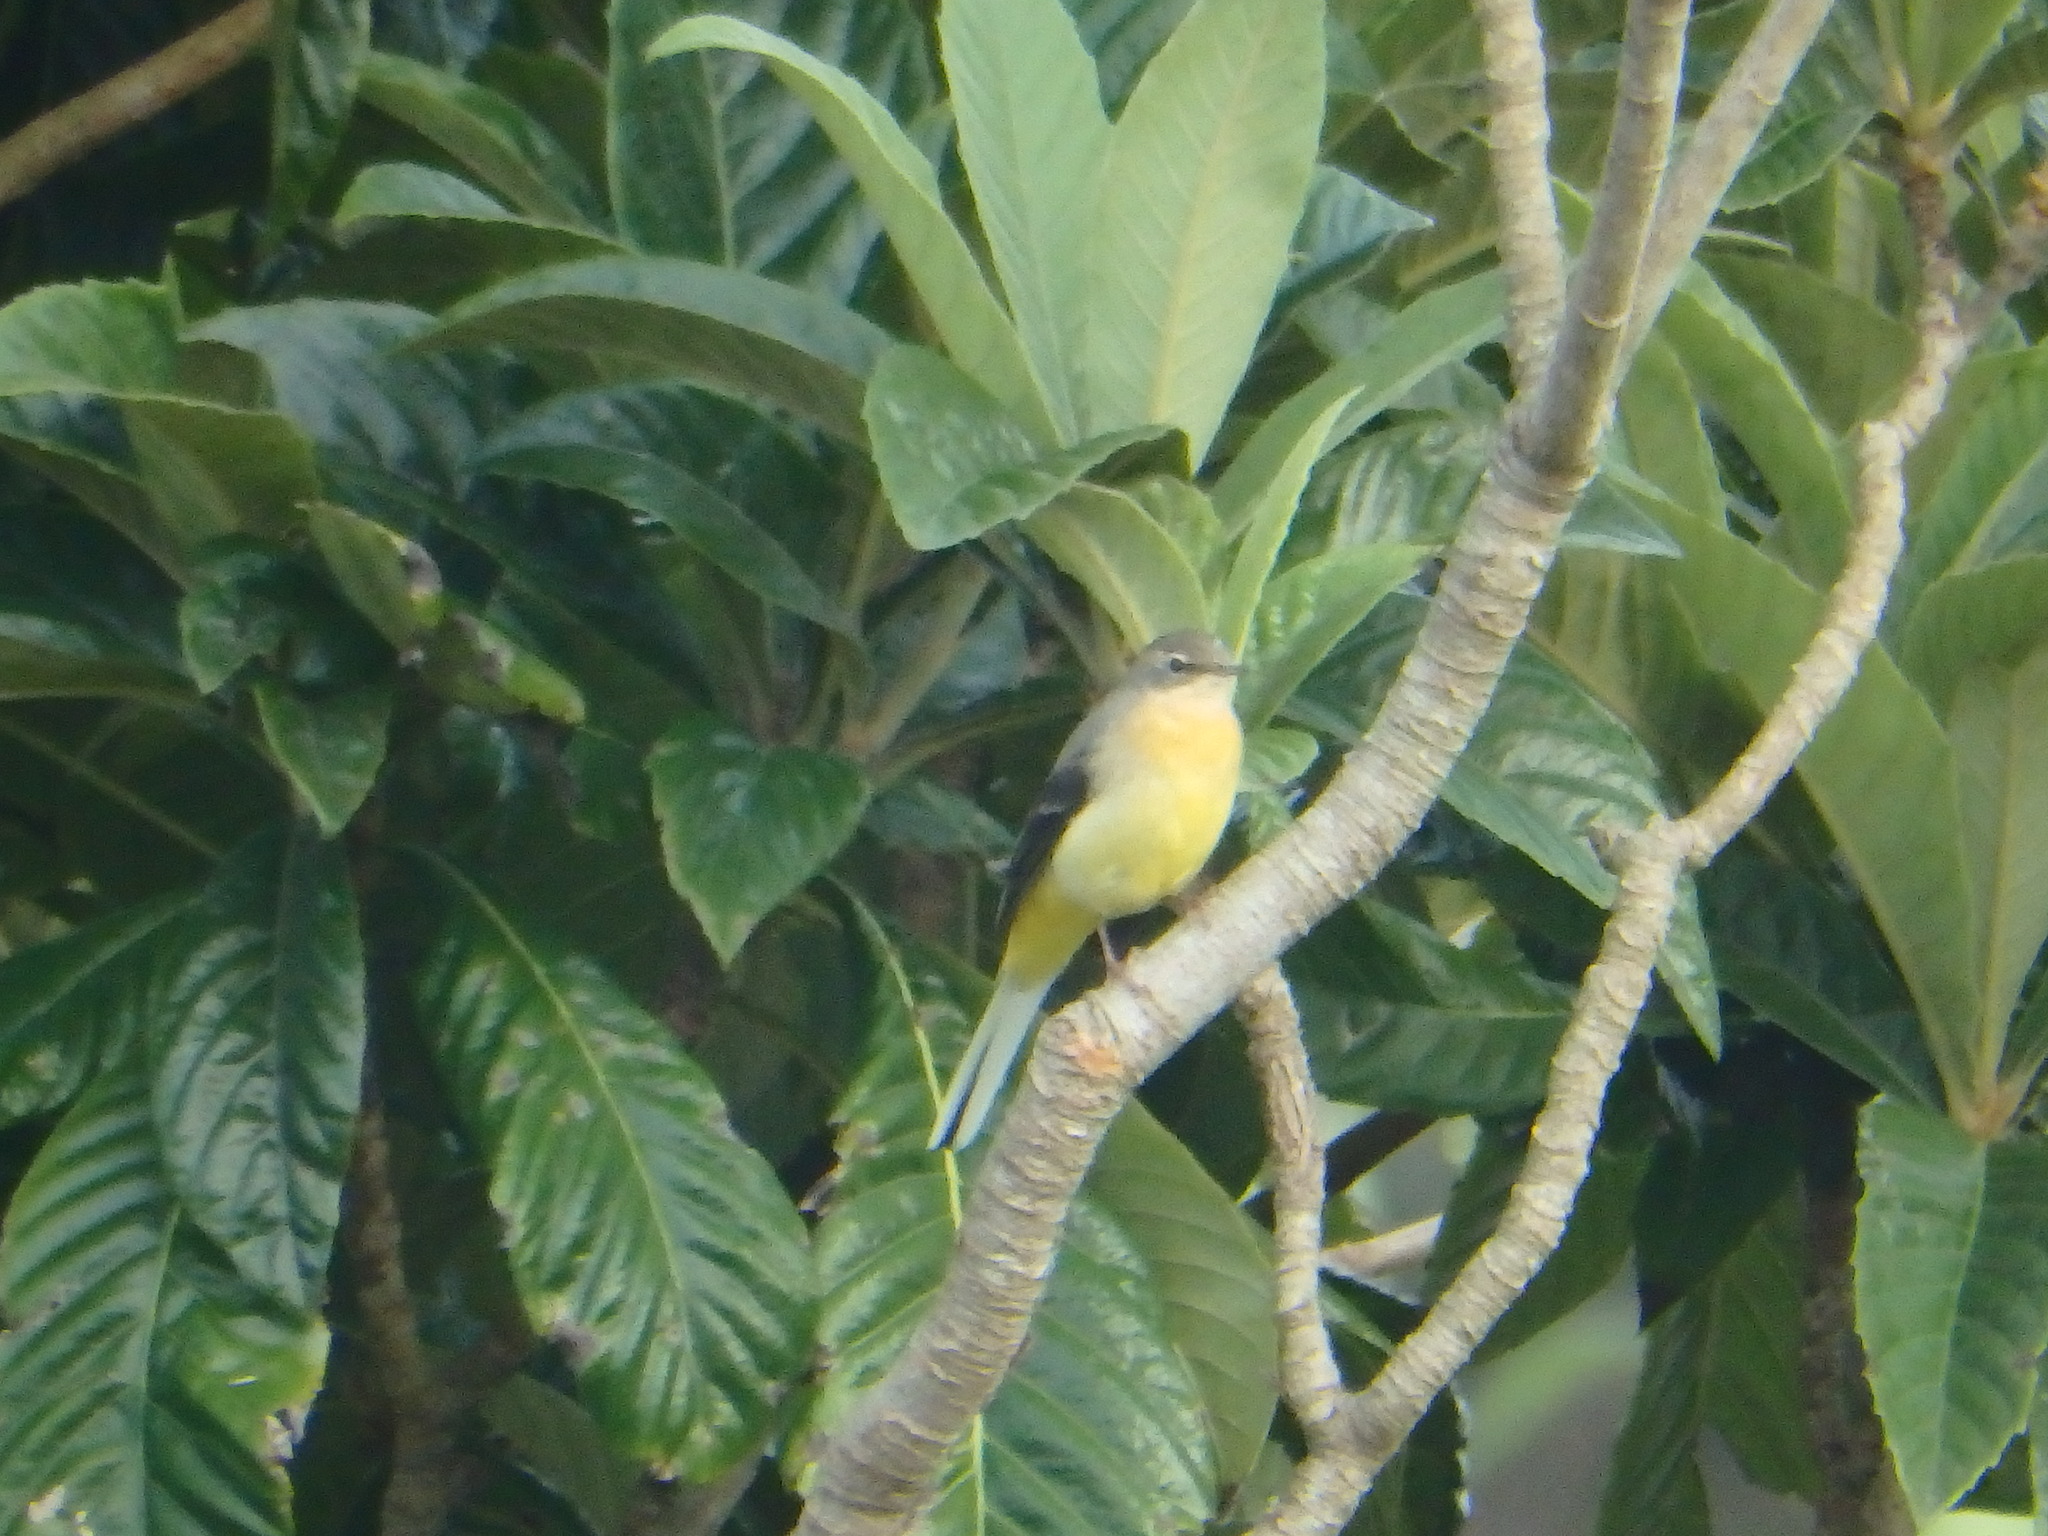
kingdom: Animalia
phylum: Chordata
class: Aves
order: Passeriformes
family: Motacillidae
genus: Motacilla
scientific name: Motacilla cinerea
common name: Grey wagtail
